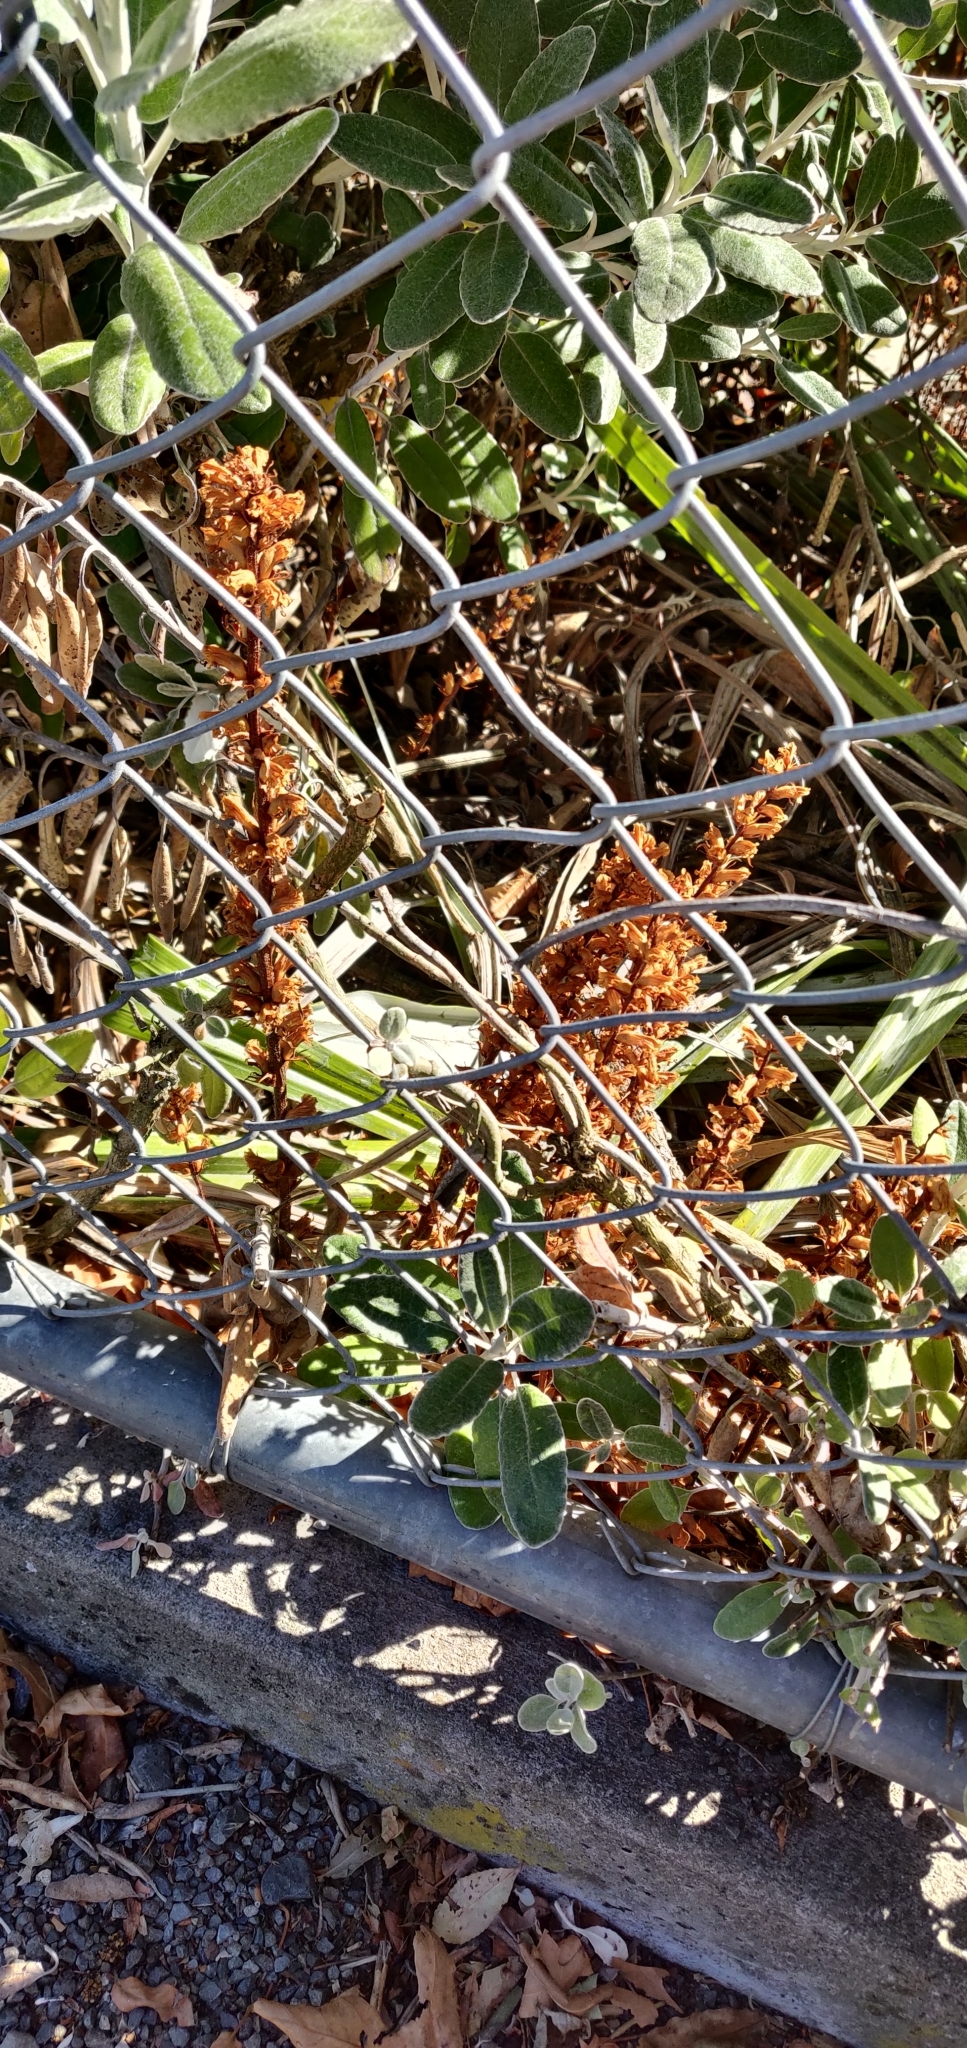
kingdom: Plantae
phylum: Tracheophyta
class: Magnoliopsida
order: Lamiales
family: Orobanchaceae
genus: Orobanche
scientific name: Orobanche minor
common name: Common broomrape
